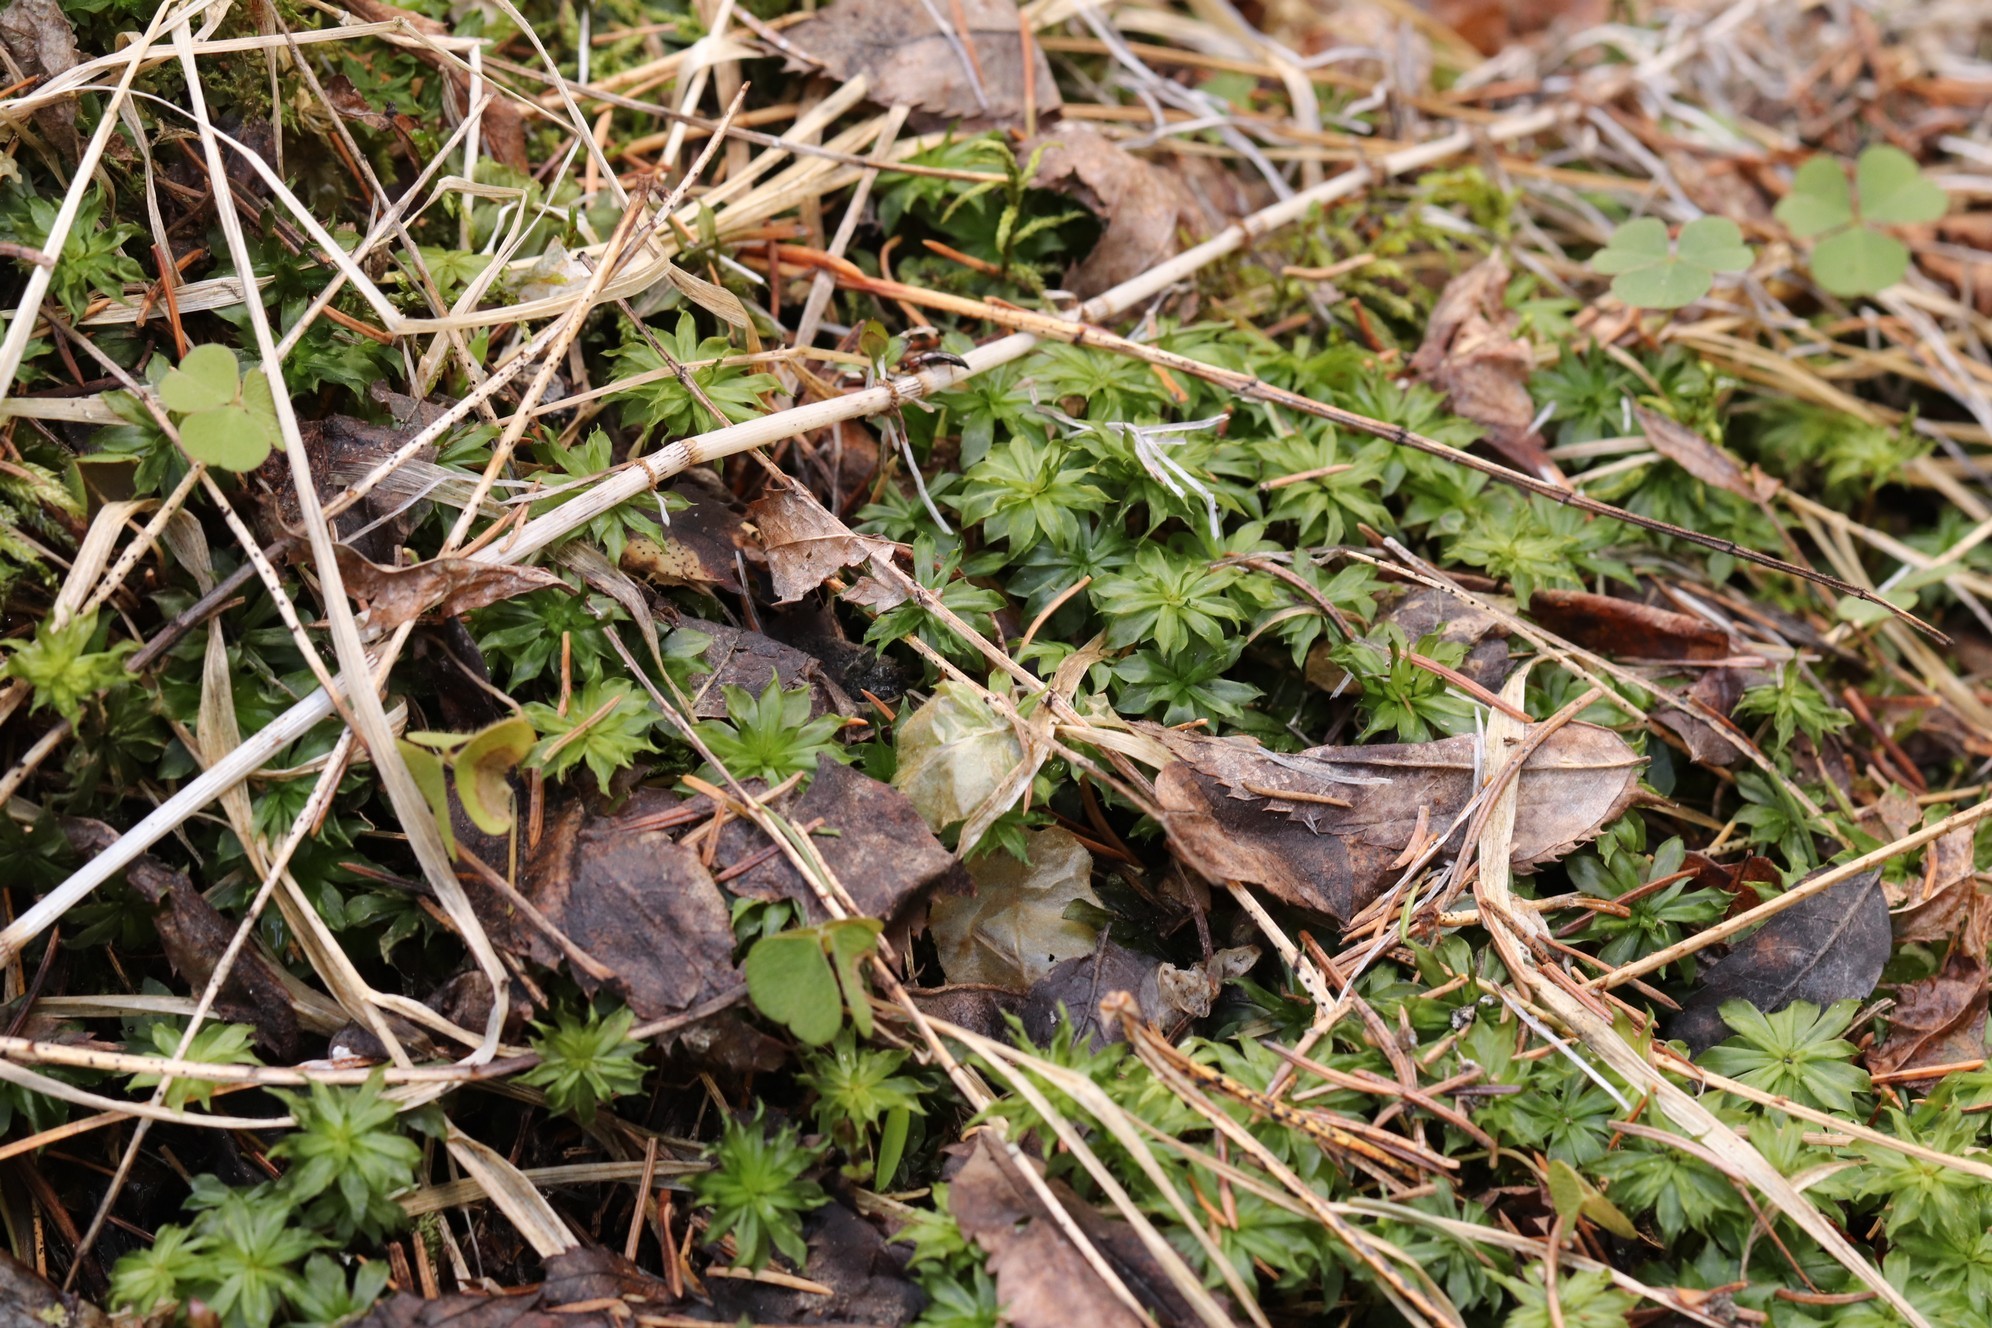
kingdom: Plantae
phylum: Bryophyta
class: Bryopsida
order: Bryales
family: Bryaceae
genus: Rhodobryum
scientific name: Rhodobryum roseum
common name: Rose-moss
